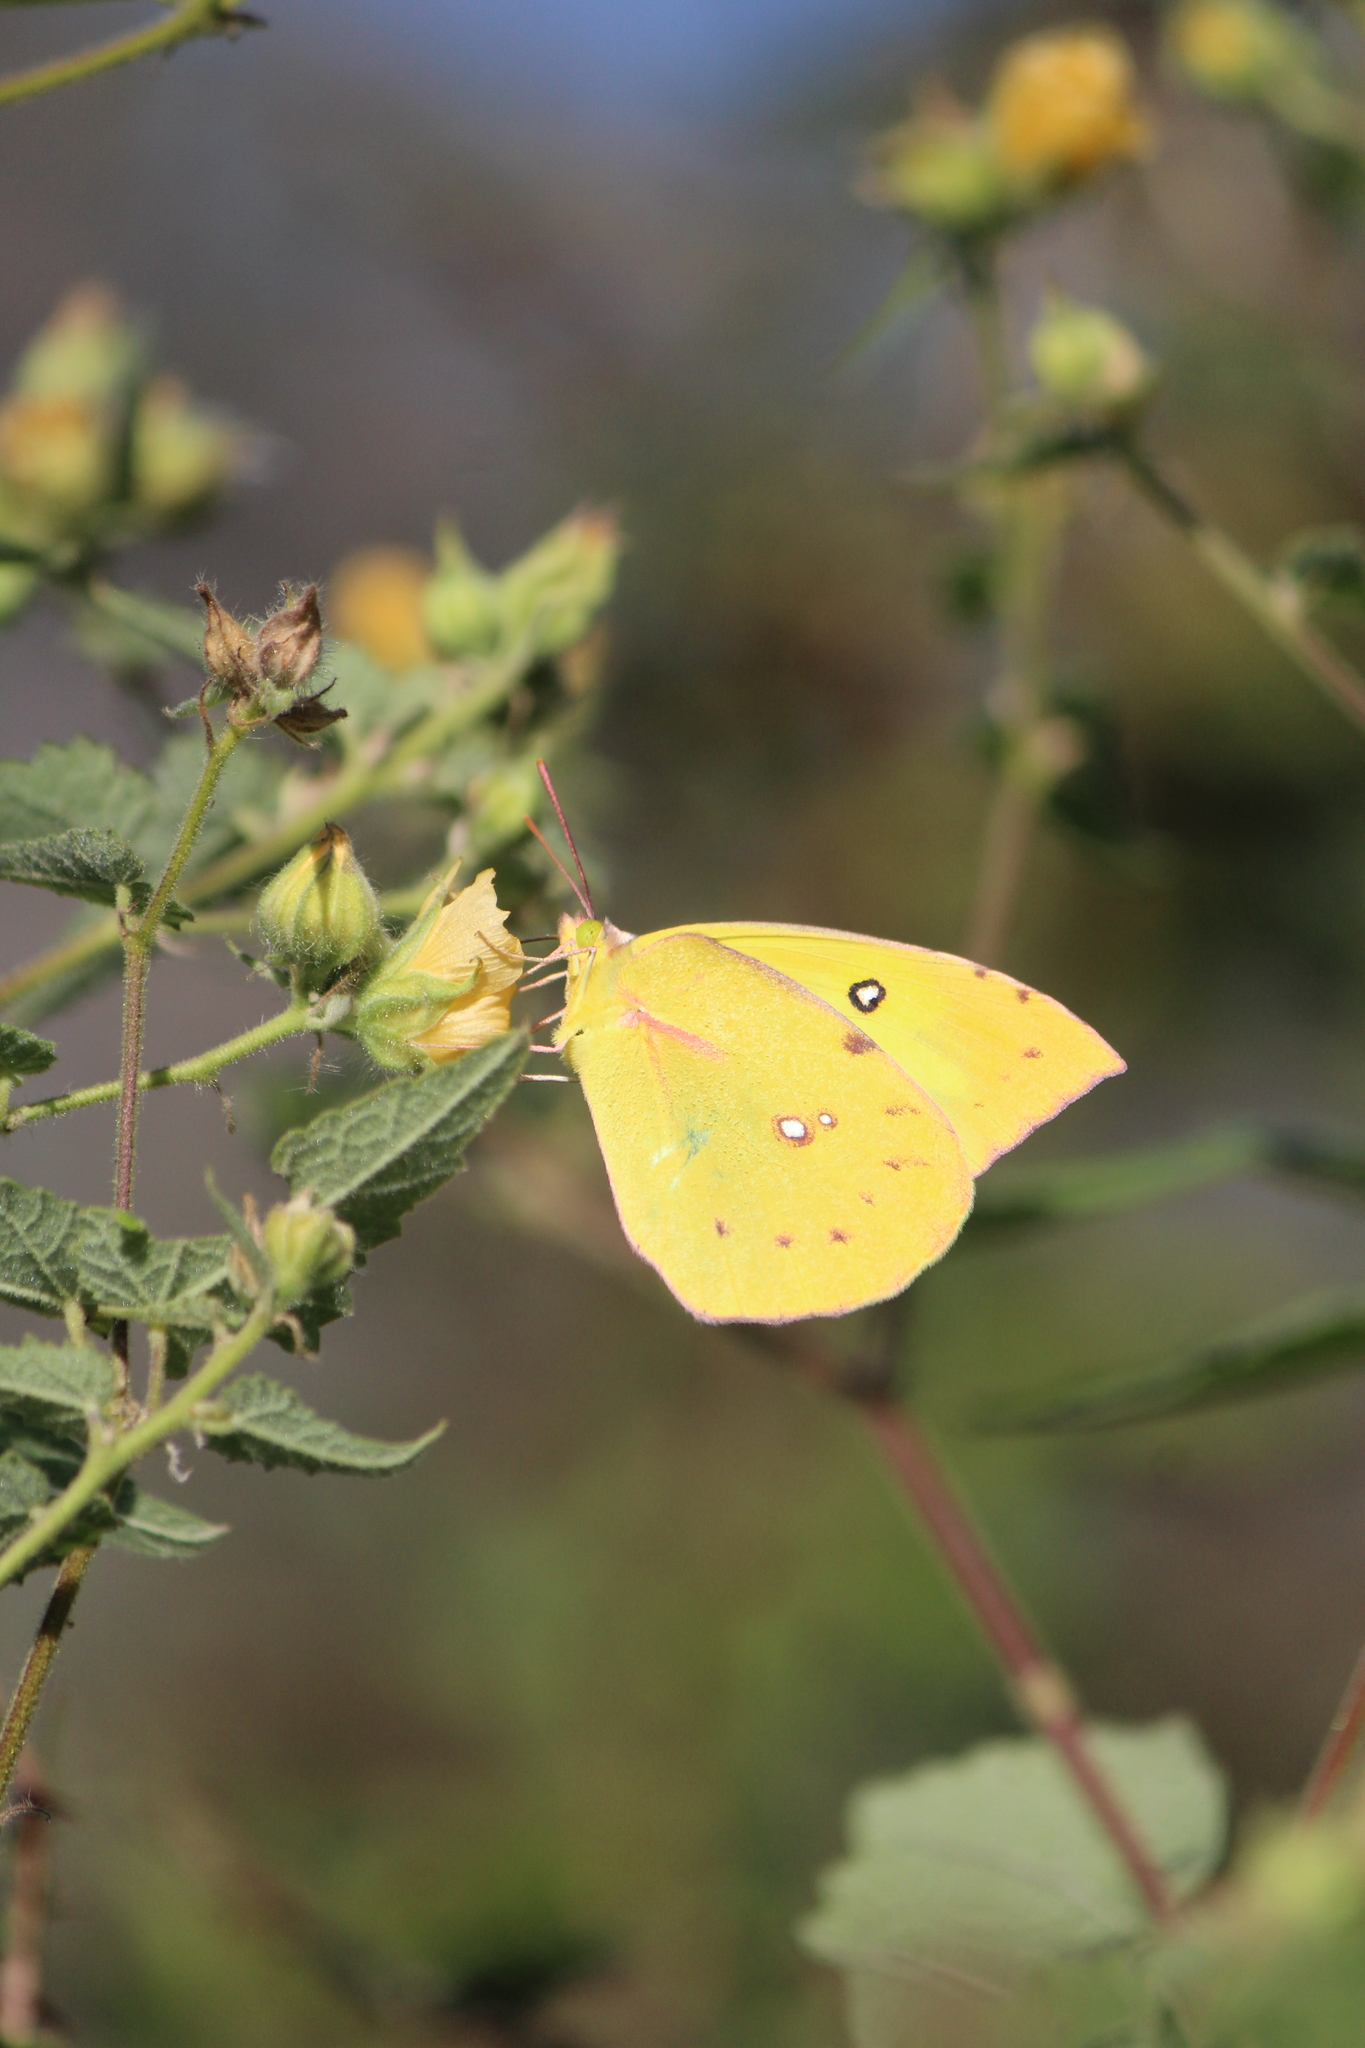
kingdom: Animalia
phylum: Arthropoda
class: Insecta
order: Lepidoptera
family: Pieridae
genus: Zerene
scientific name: Zerene cesonia
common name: Southern dogface
